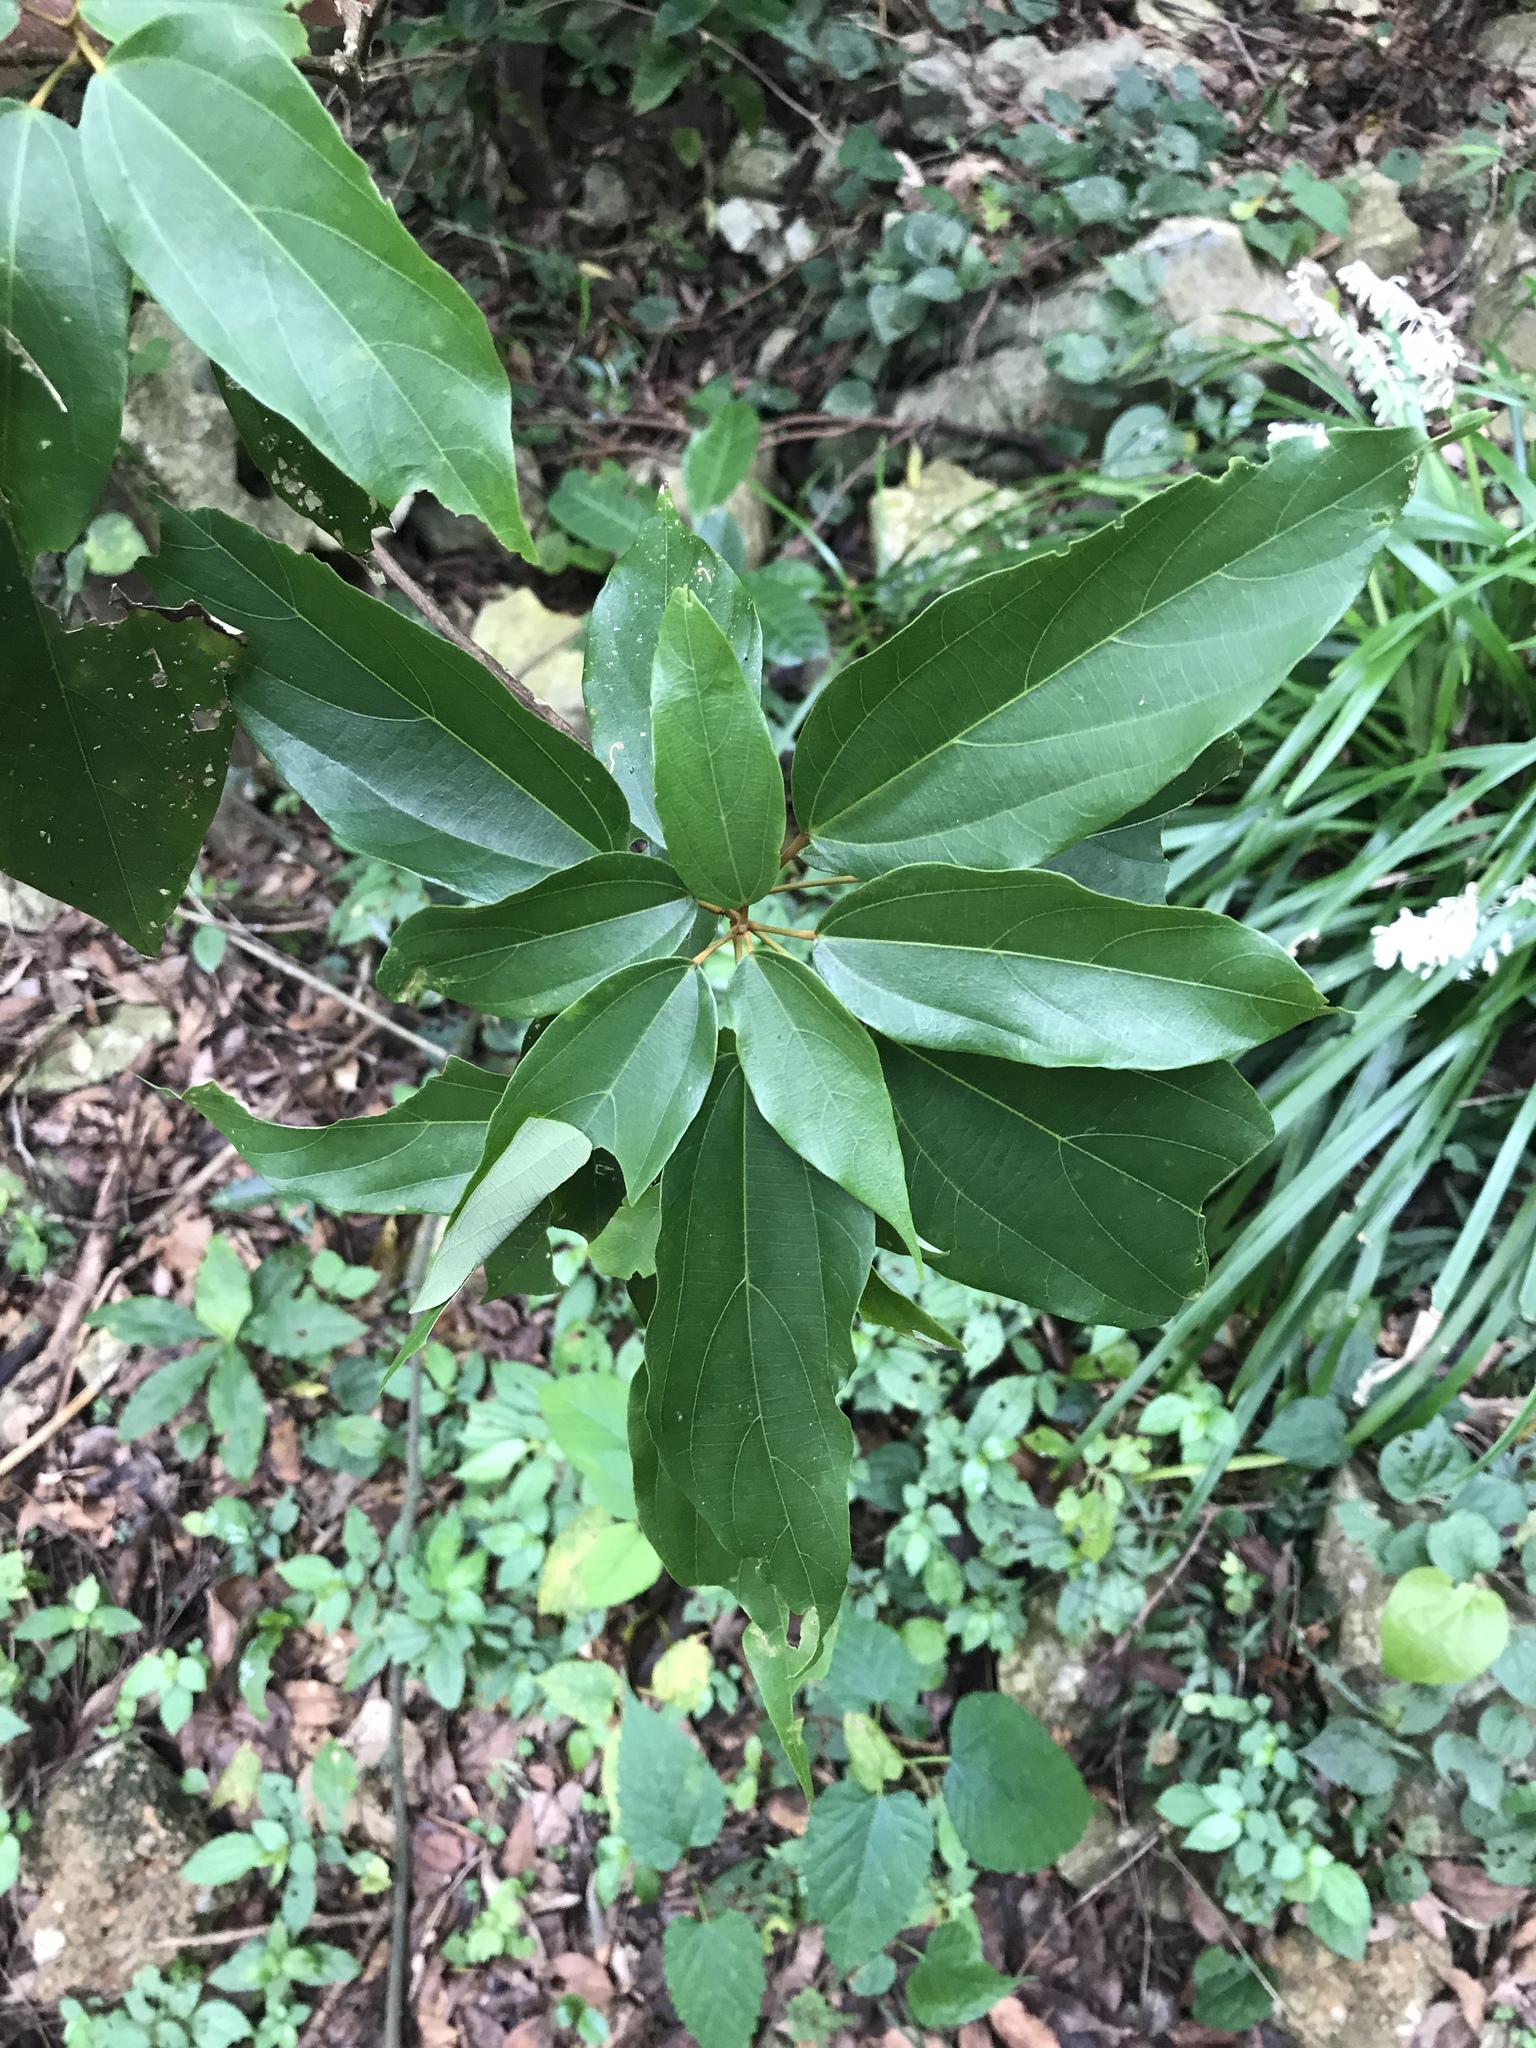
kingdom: Plantae
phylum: Tracheophyta
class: Magnoliopsida
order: Malpighiales
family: Euphorbiaceae
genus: Mallotus
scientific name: Mallotus philippensis
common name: Kamala tree
